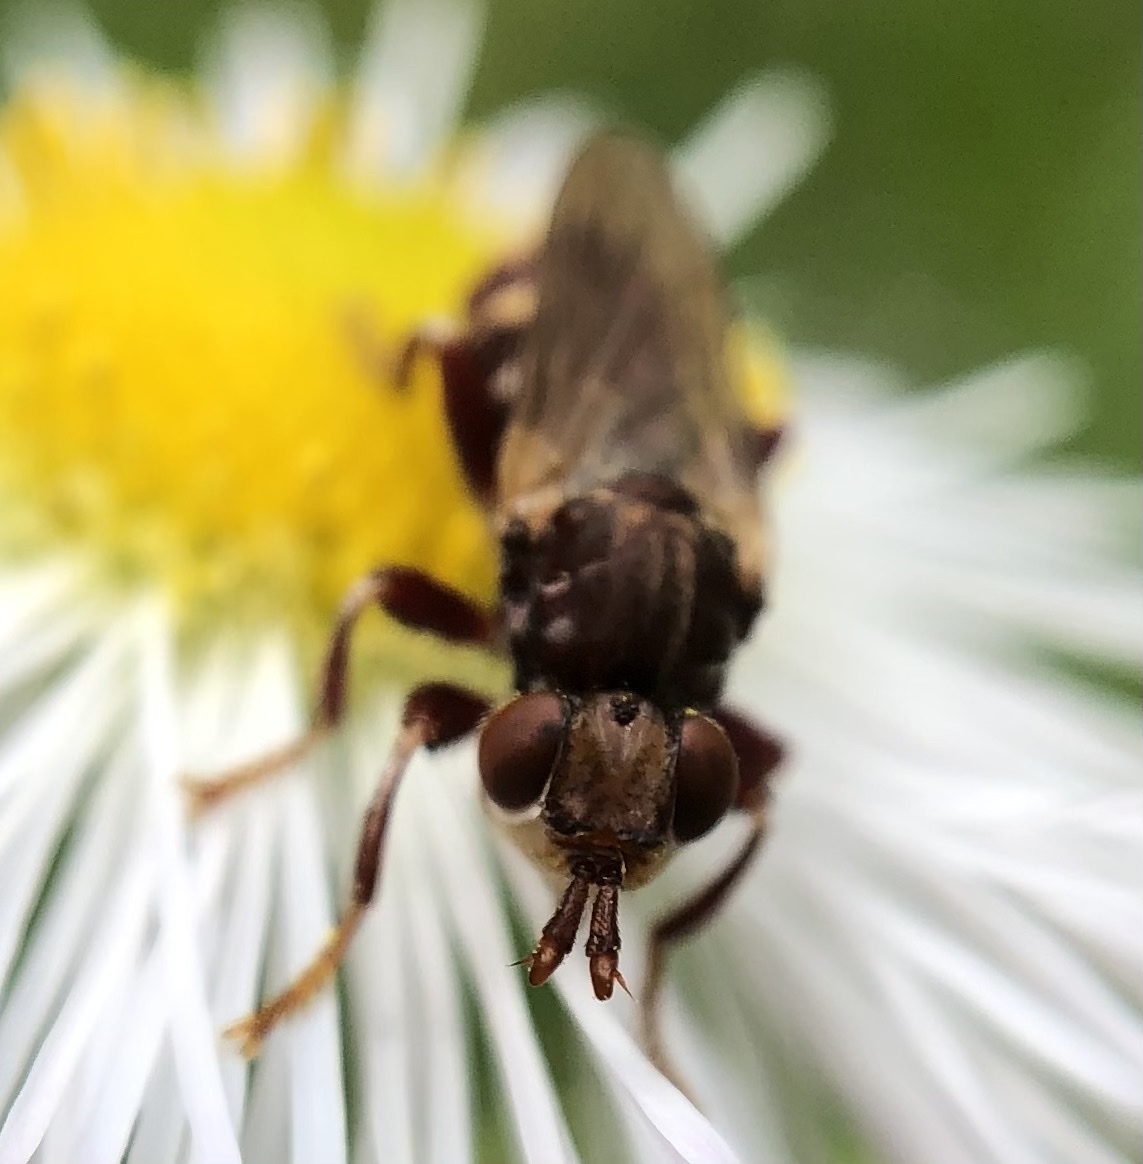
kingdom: Animalia
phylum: Arthropoda
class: Insecta
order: Diptera
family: Conopidae
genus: Myopa
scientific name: Myopa clausa
